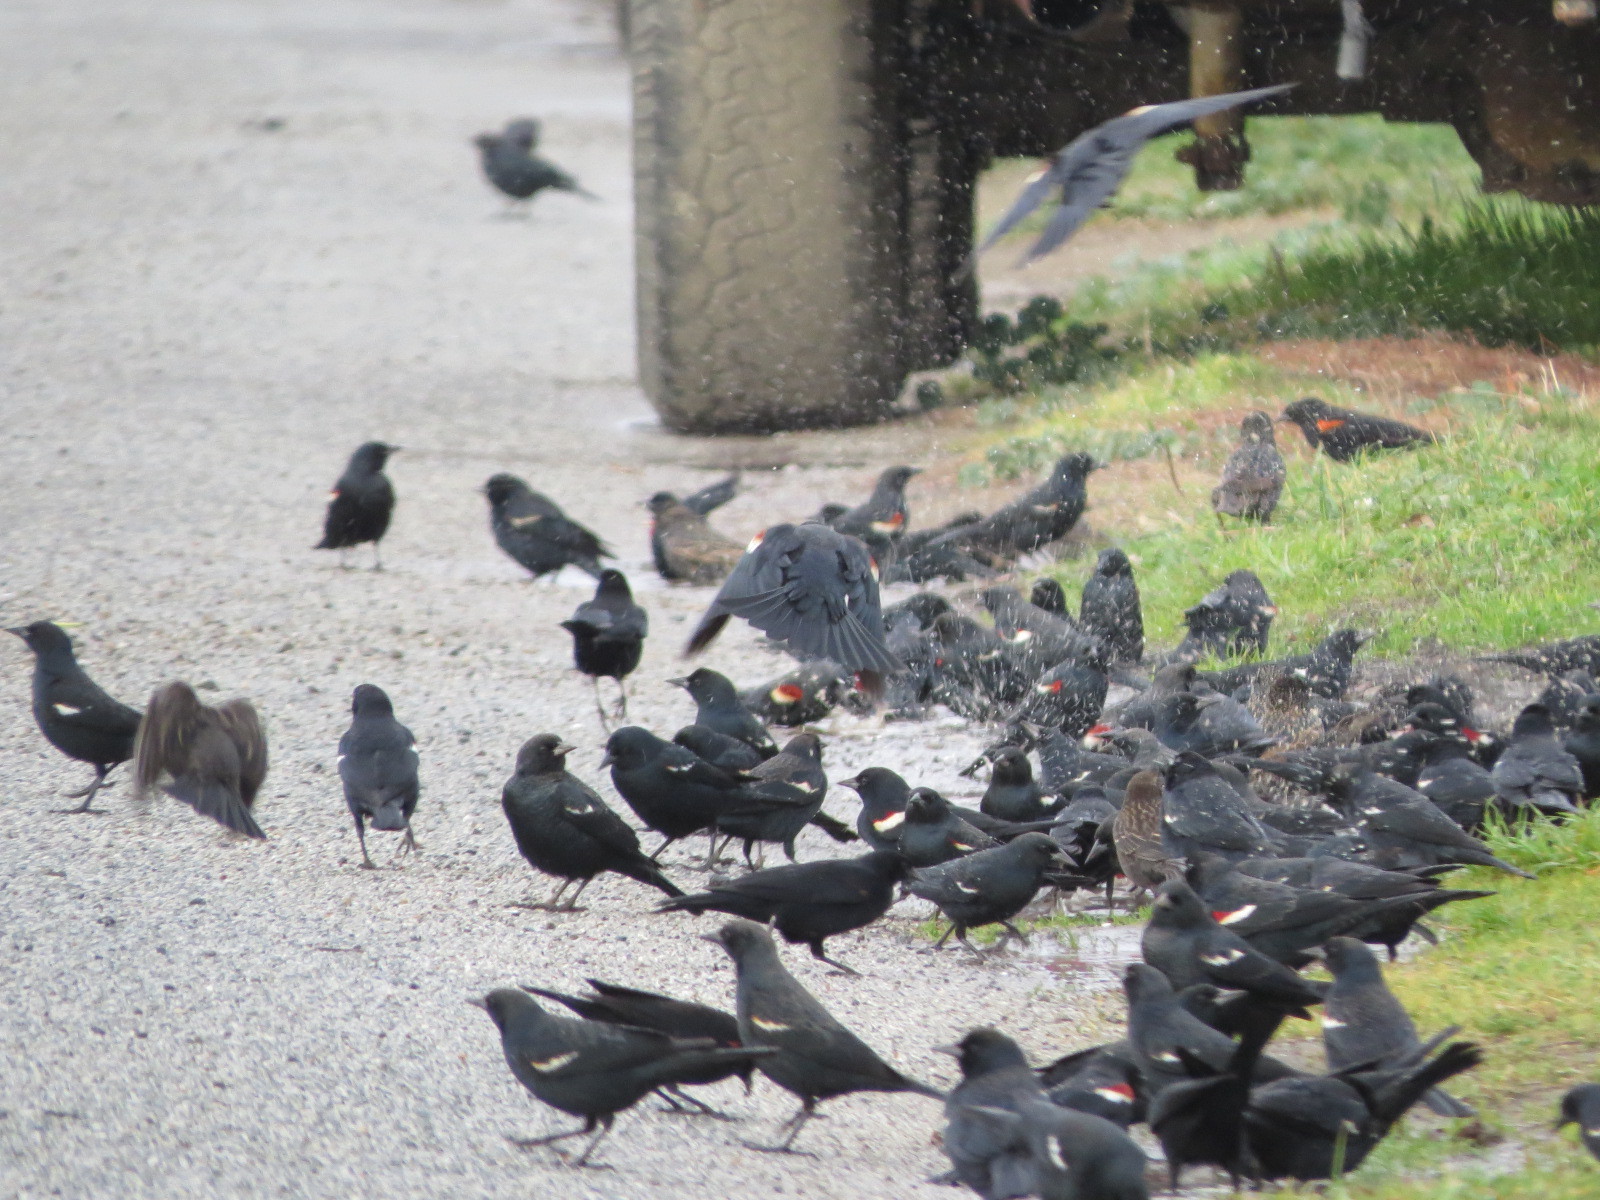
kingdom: Animalia
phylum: Chordata
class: Aves
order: Passeriformes
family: Icteridae
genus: Agelaius
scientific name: Agelaius tricolor
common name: Tricolored blackbird
